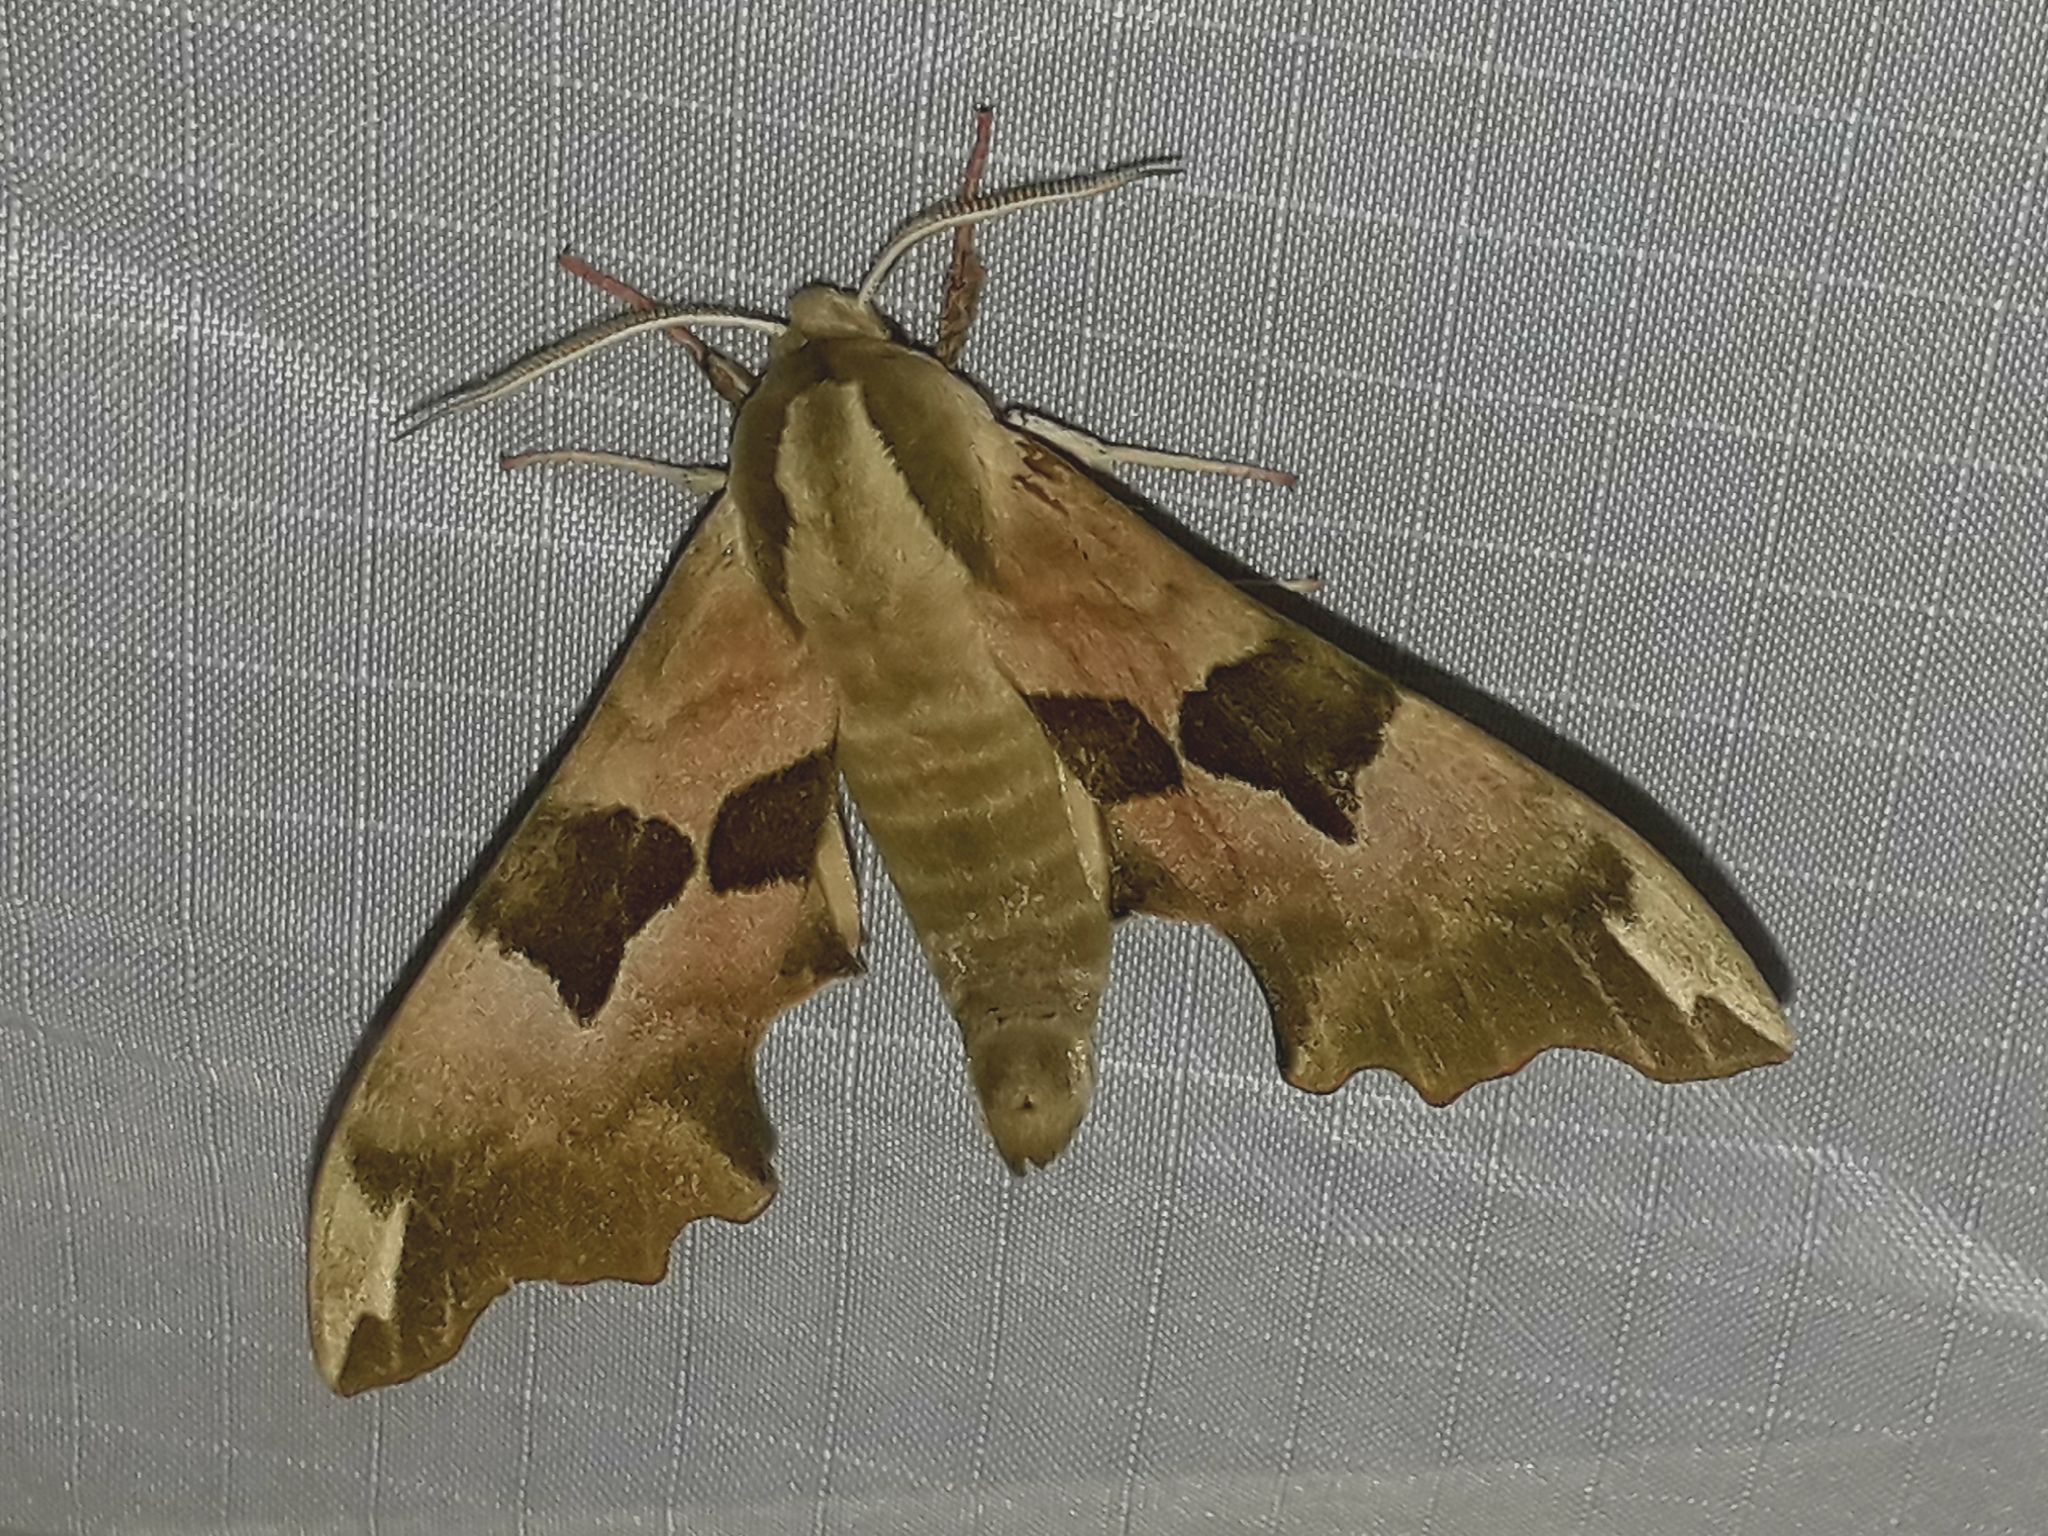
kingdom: Animalia
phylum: Arthropoda
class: Insecta
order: Lepidoptera
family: Sphingidae
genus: Mimas
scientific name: Mimas tiliae
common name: Lime hawk-moth
